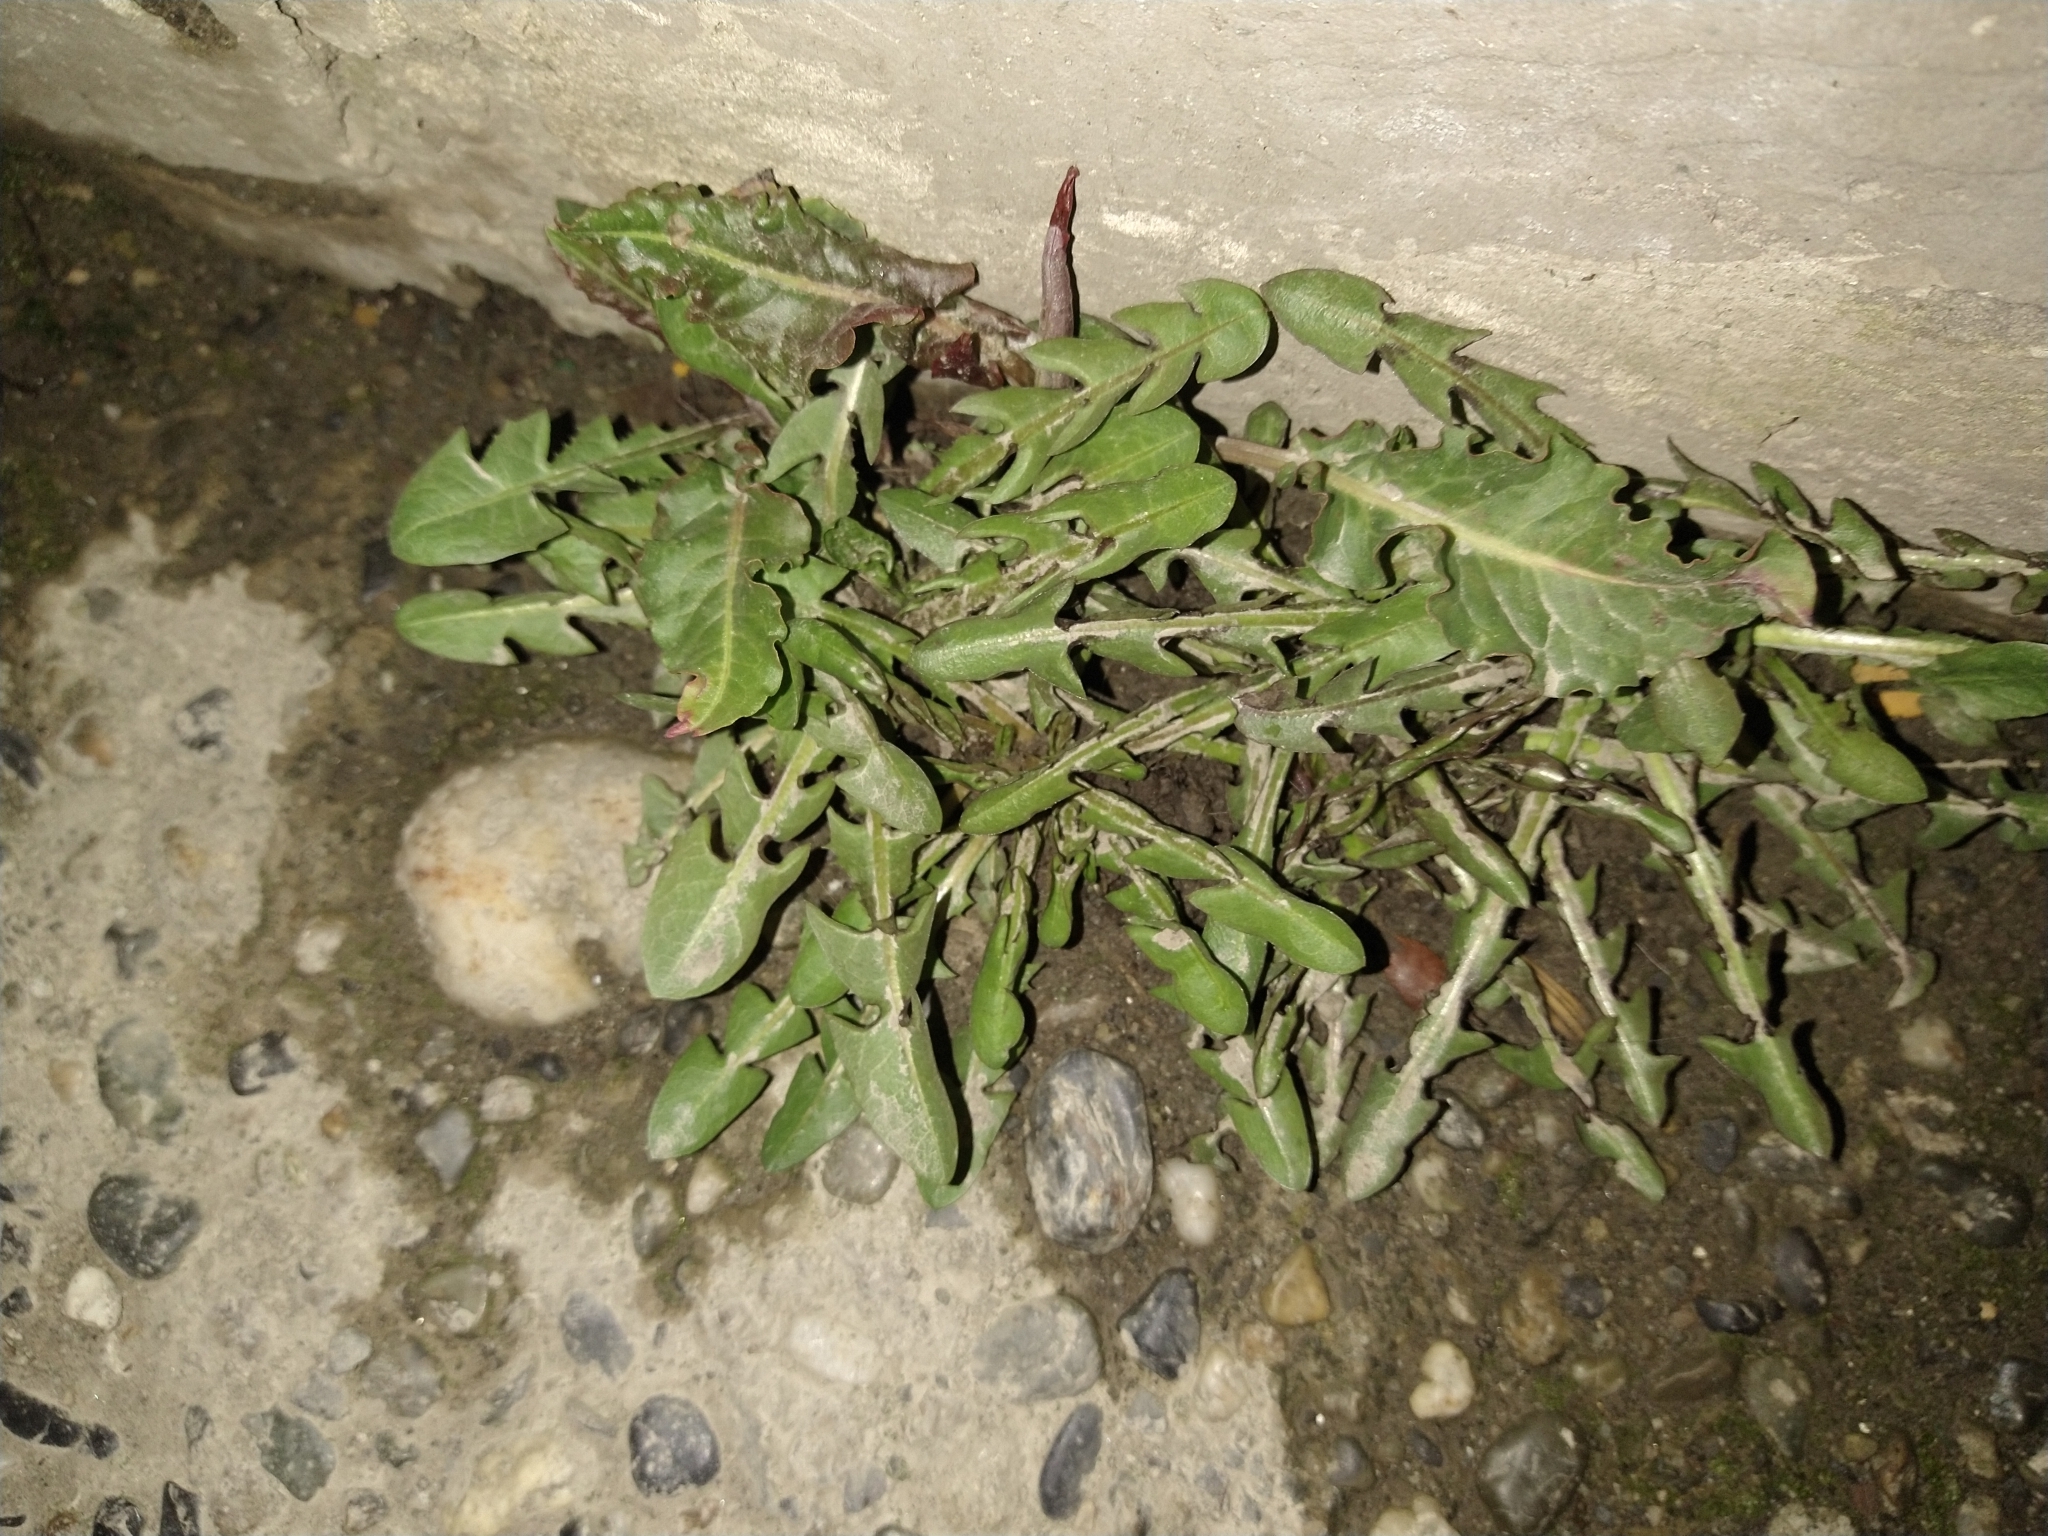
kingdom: Plantae
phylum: Tracheophyta
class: Magnoliopsida
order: Asterales
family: Asteraceae
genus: Taraxacum
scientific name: Taraxacum officinale
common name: Common dandelion
